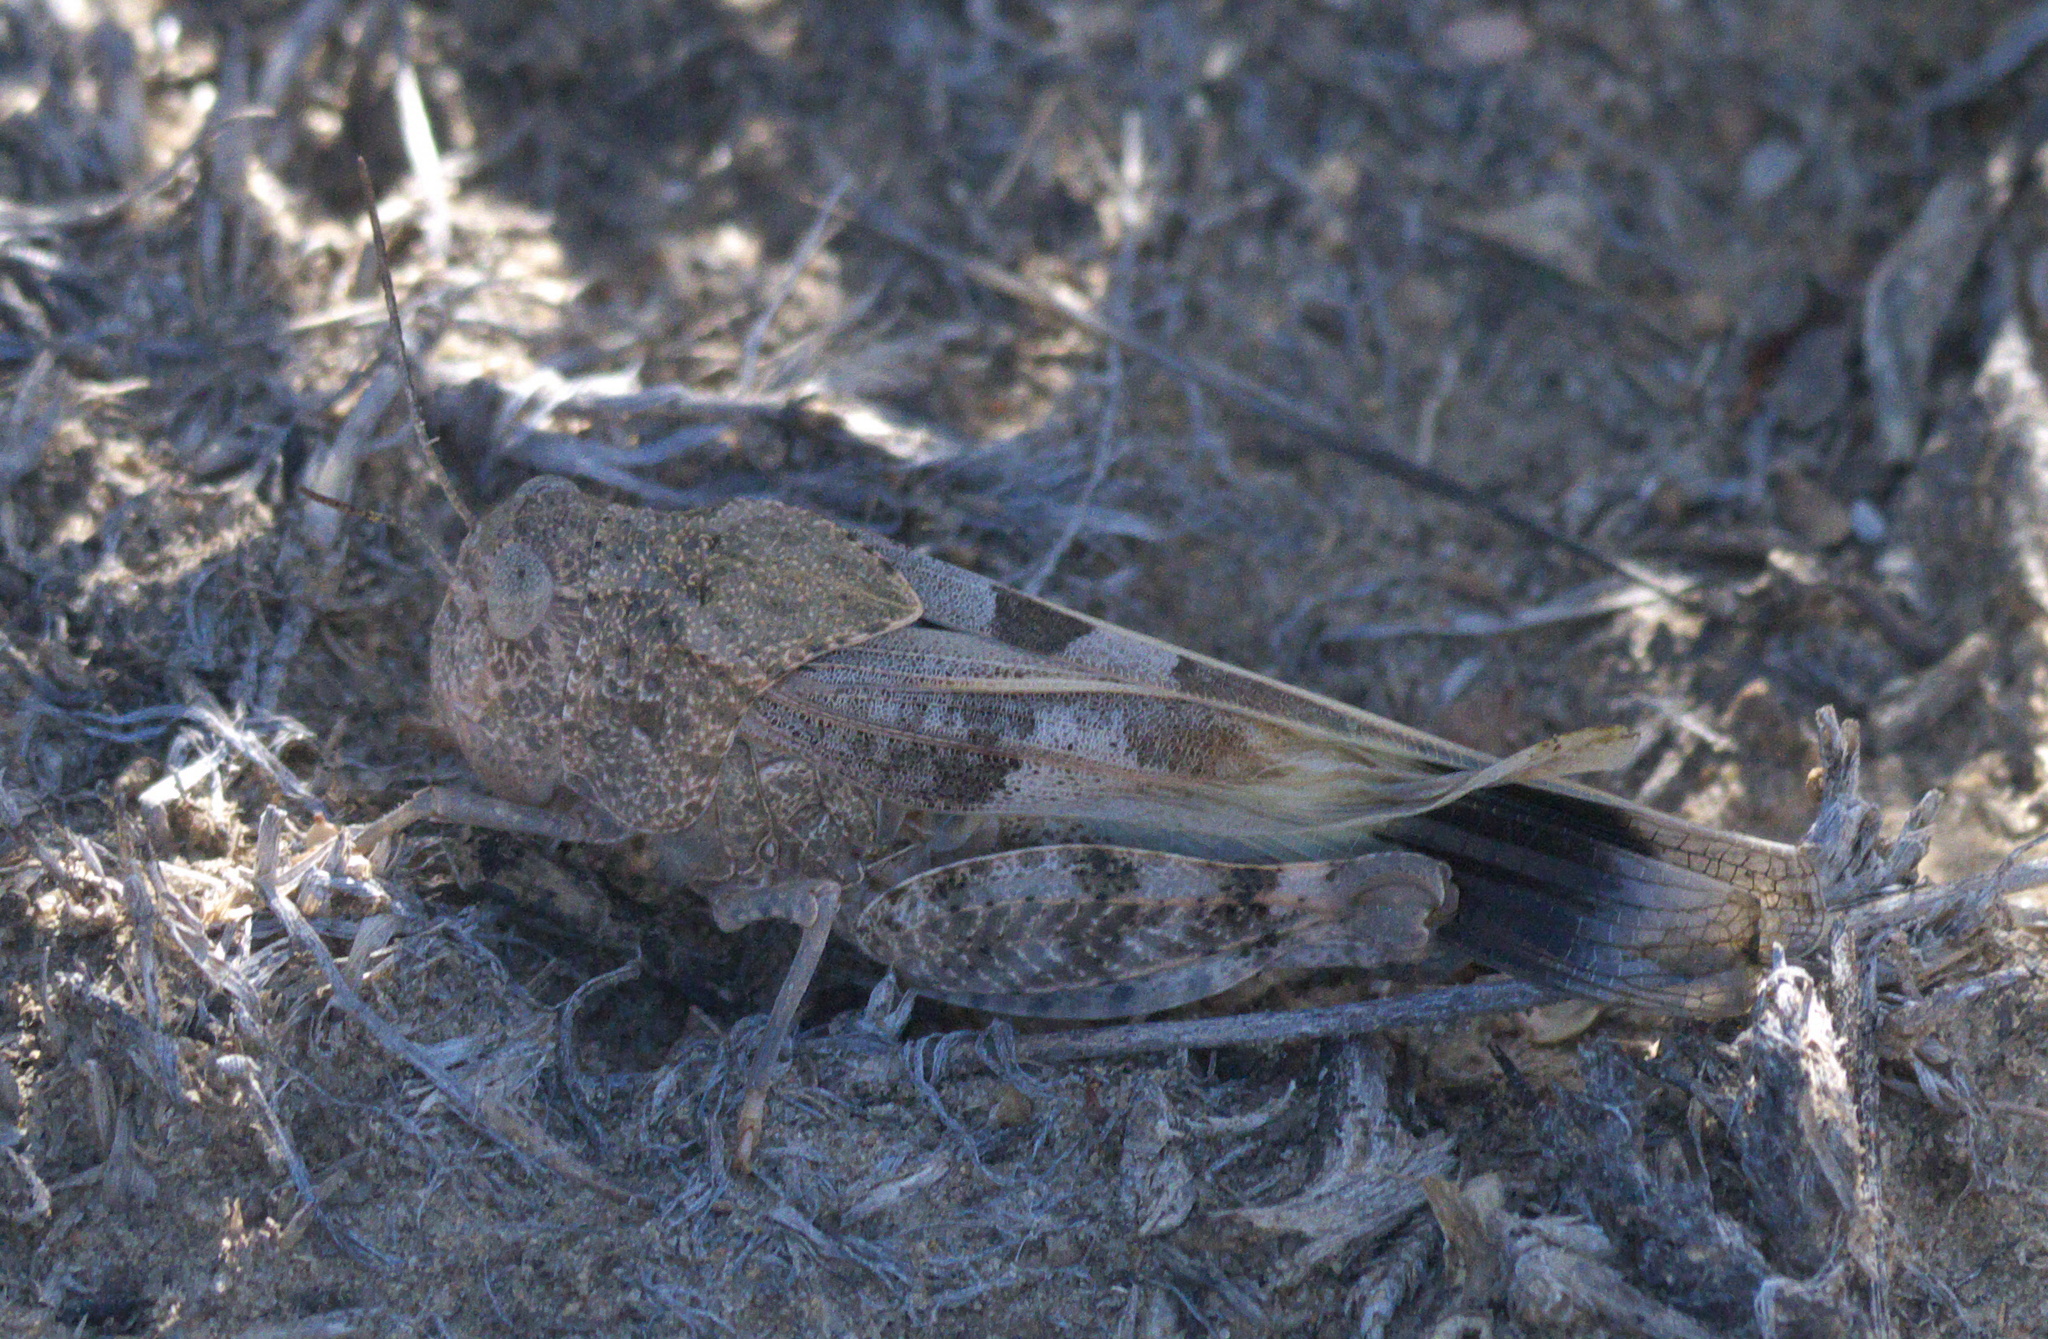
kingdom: Animalia
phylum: Arthropoda
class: Insecta
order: Orthoptera
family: Acrididae
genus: Leprus
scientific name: Leprus wheelerii
